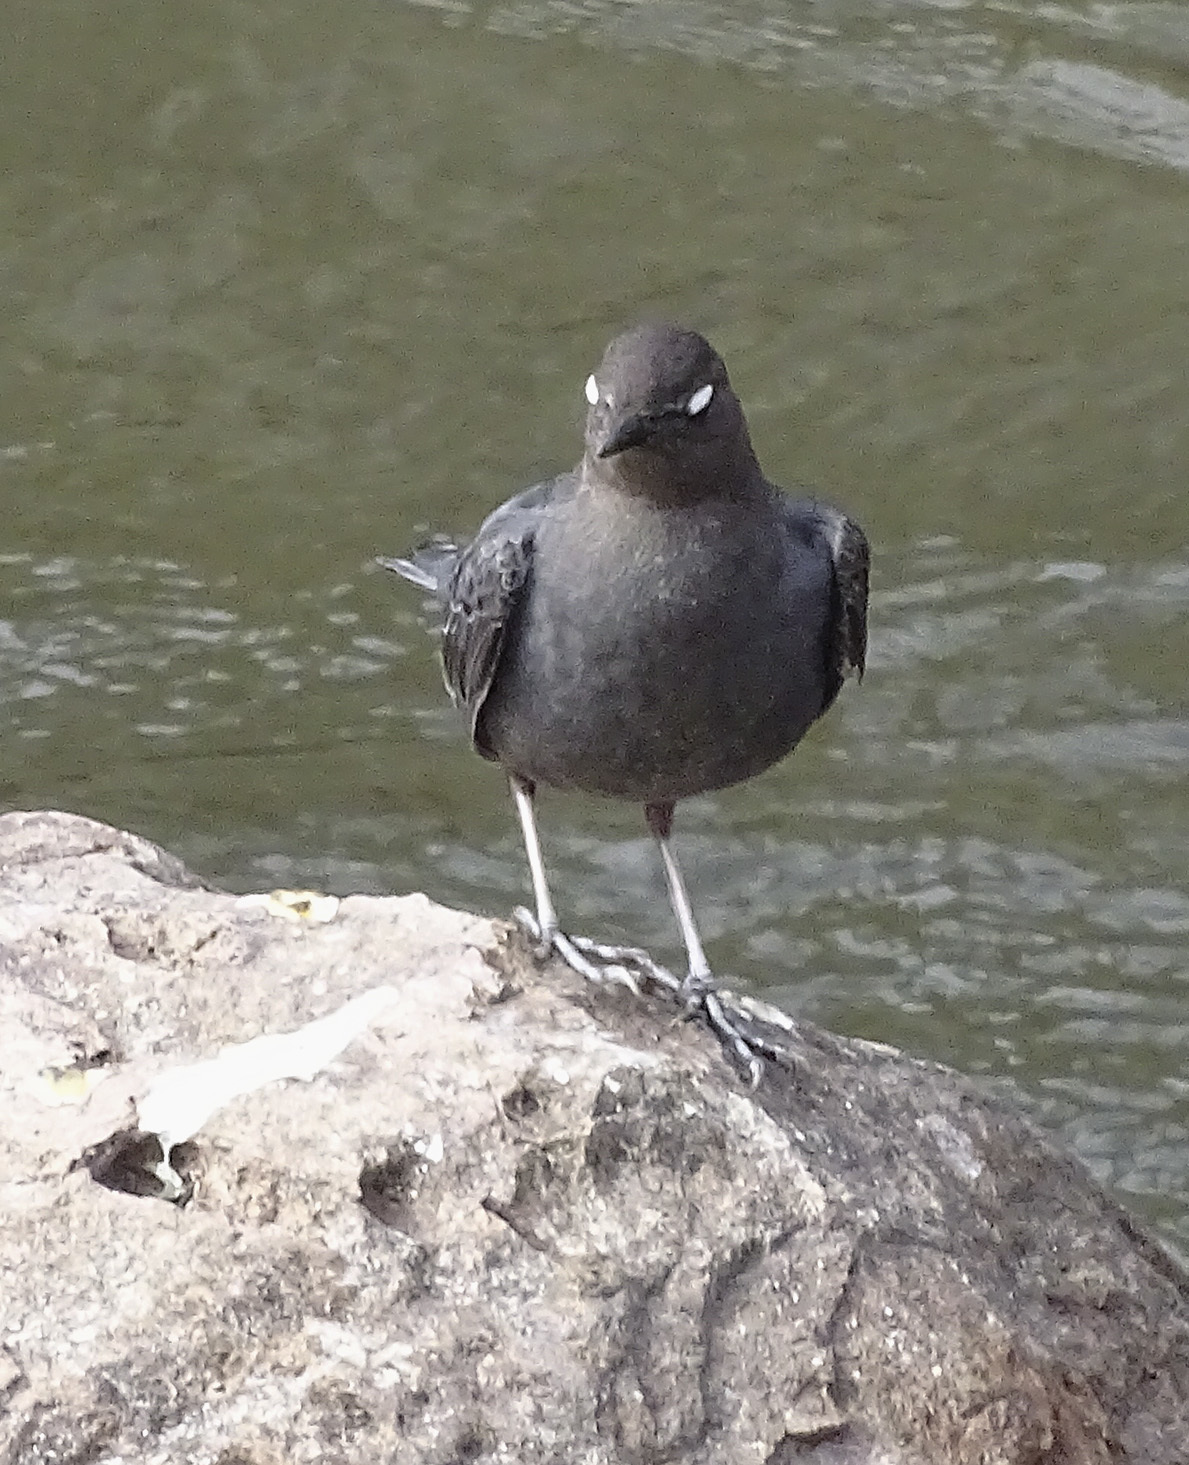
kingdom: Animalia
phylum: Chordata
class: Aves
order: Passeriformes
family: Cinclidae
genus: Cinclus
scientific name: Cinclus mexicanus
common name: American dipper
